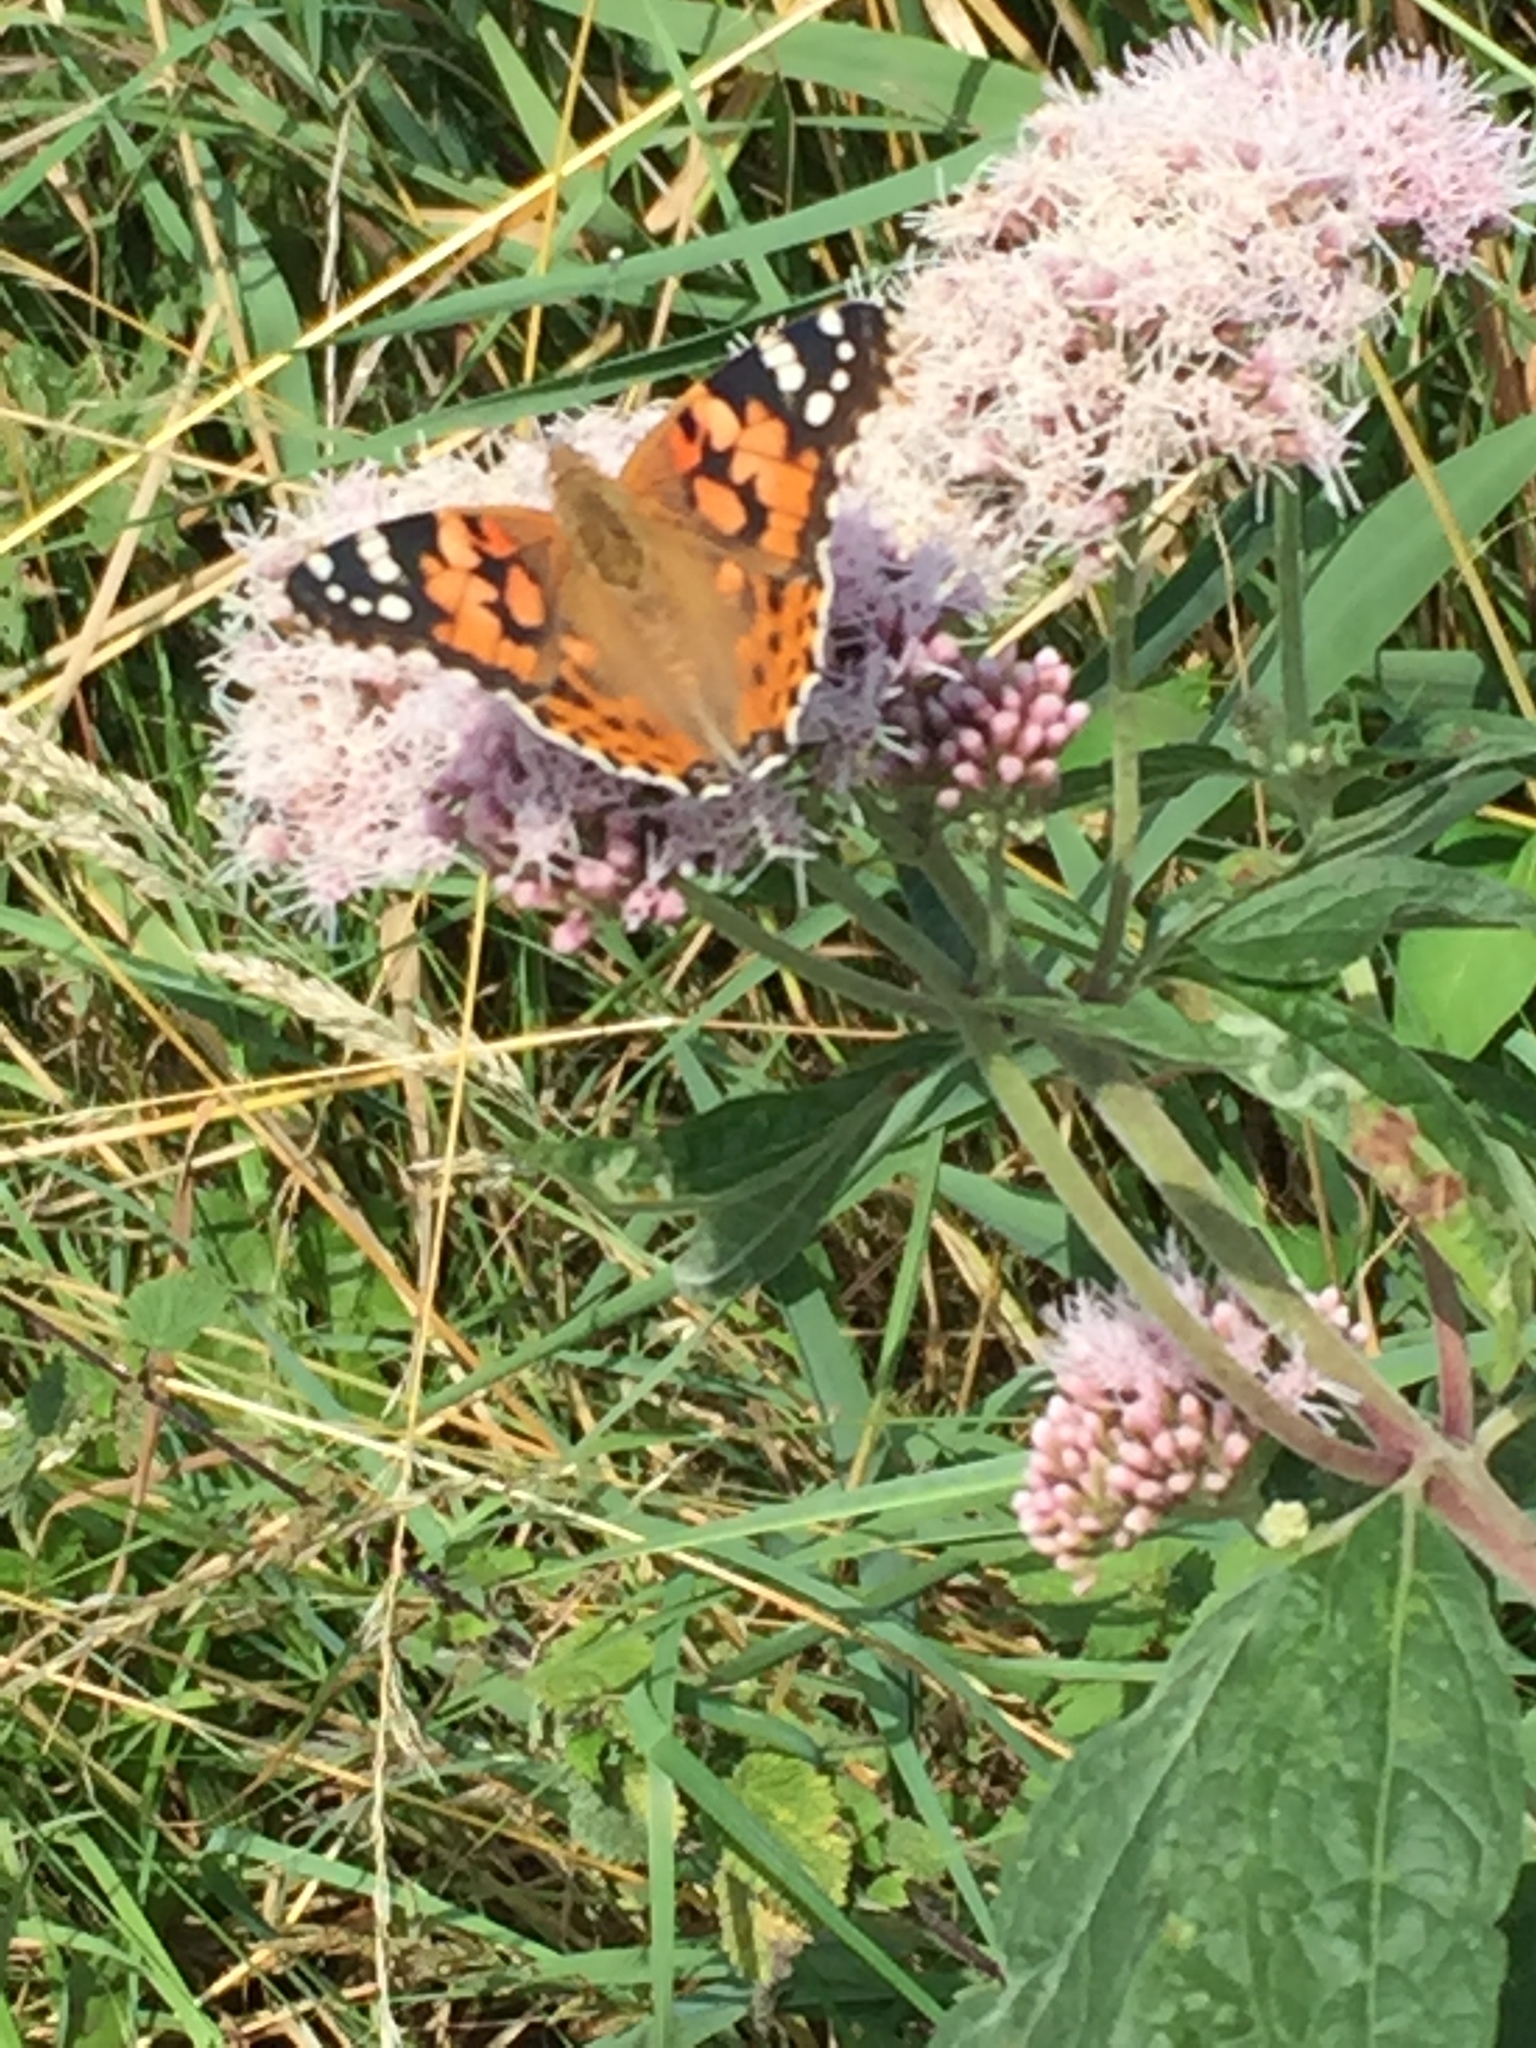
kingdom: Animalia
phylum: Arthropoda
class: Insecta
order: Lepidoptera
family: Nymphalidae
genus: Vanessa
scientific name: Vanessa cardui
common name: Painted lady
